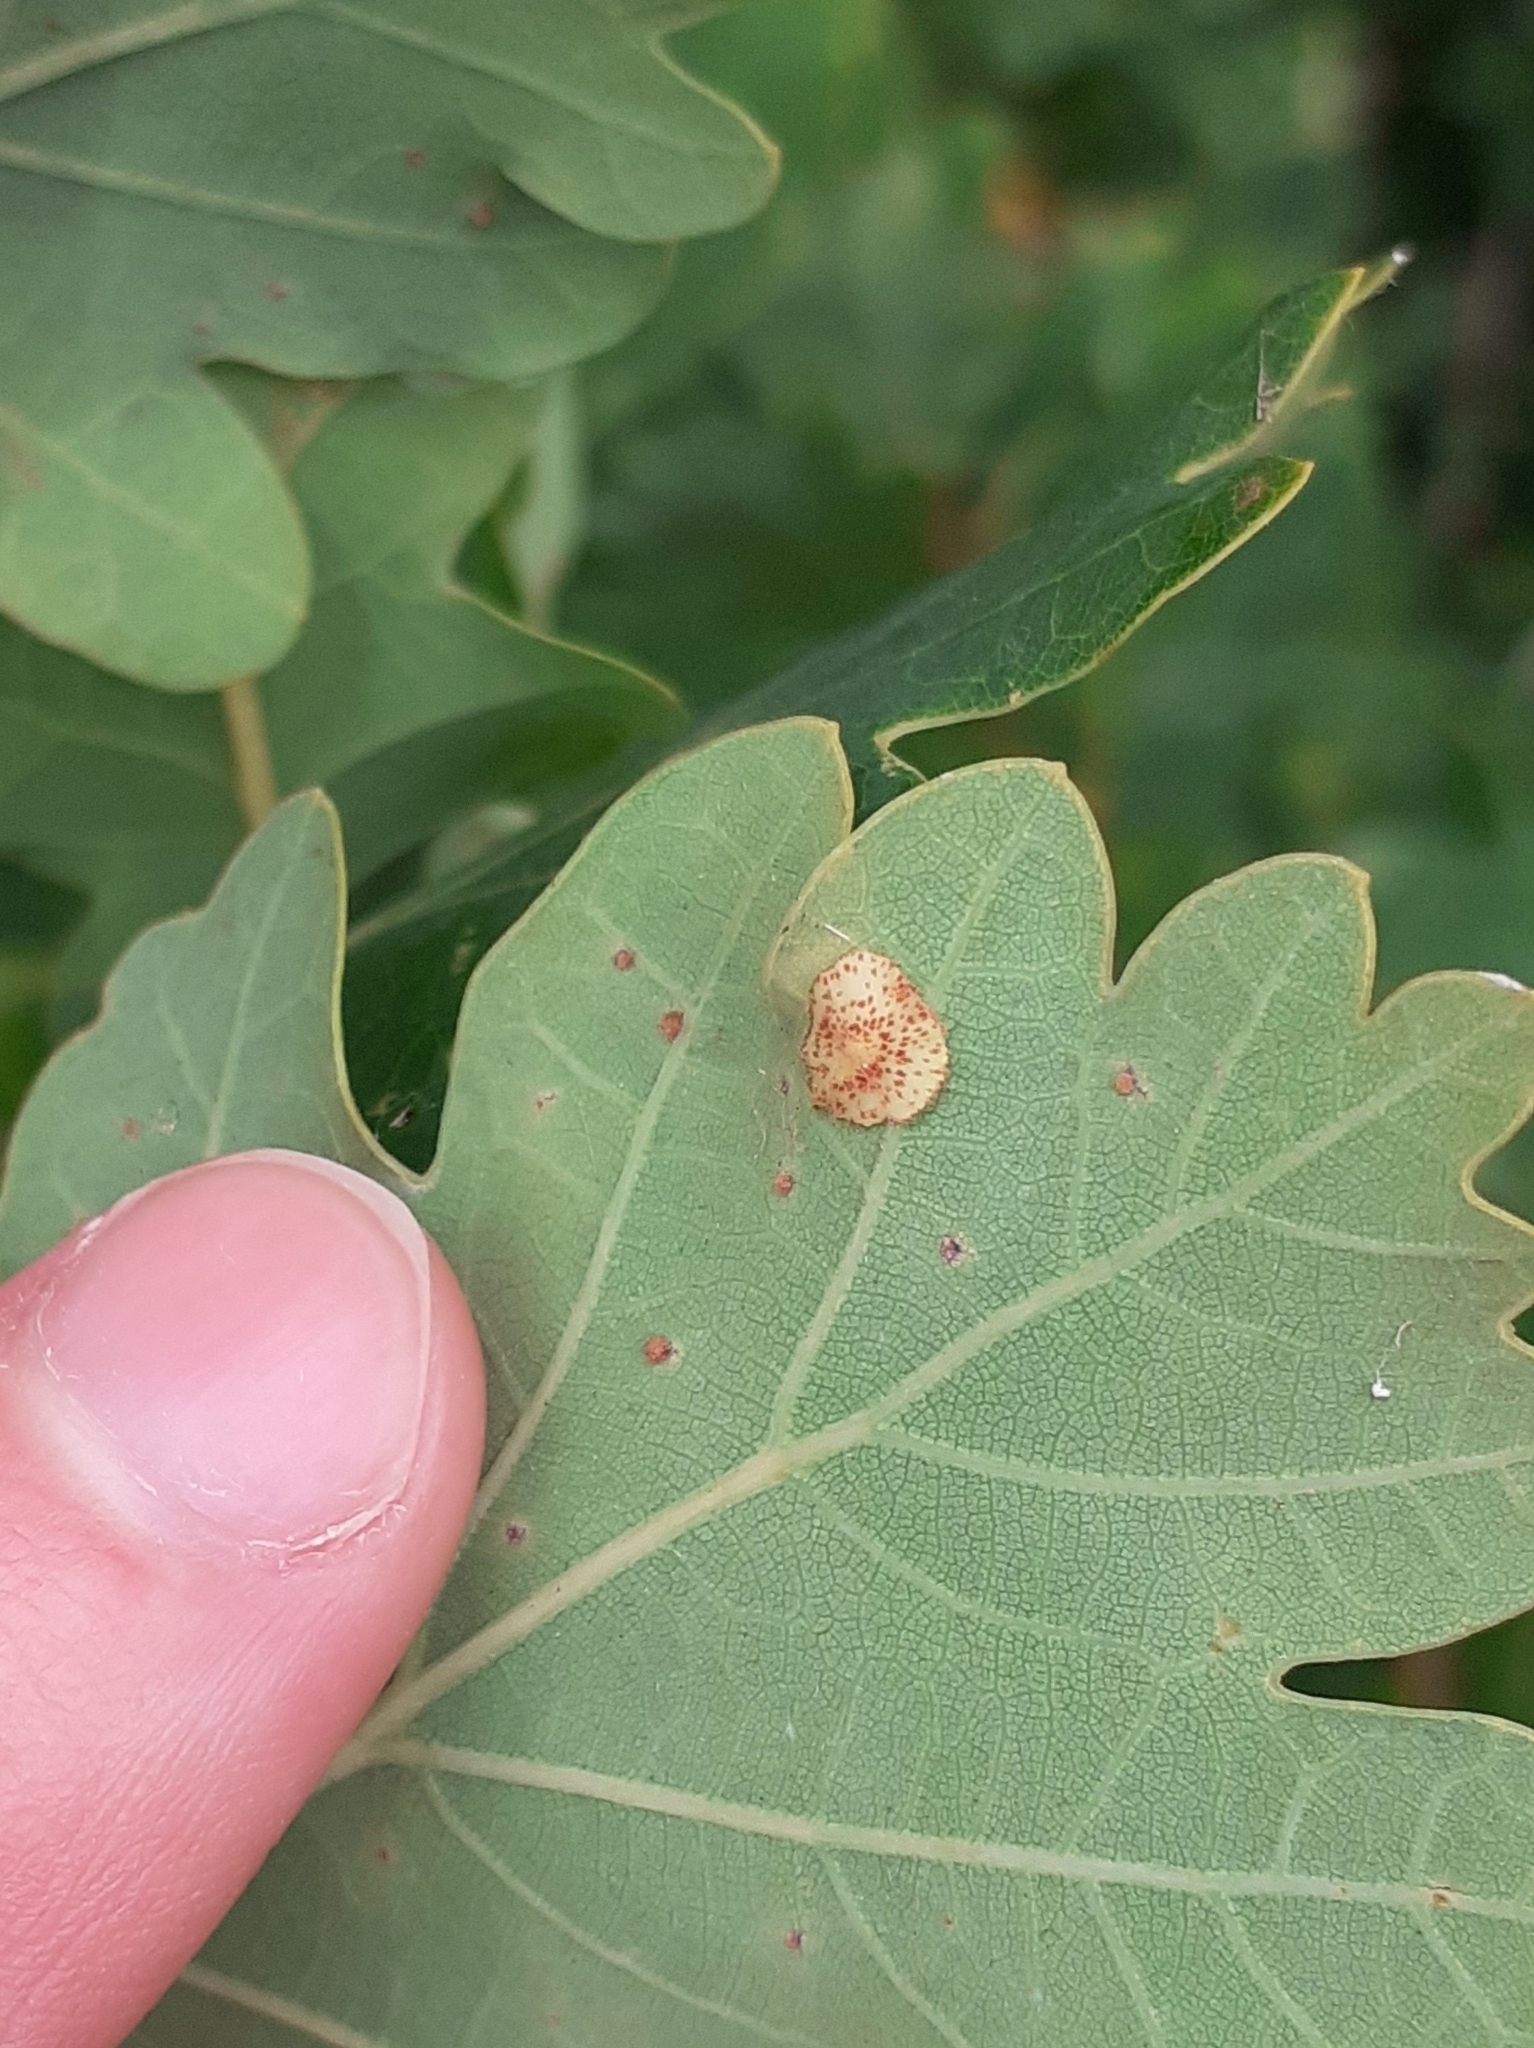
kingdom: Animalia
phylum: Arthropoda
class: Insecta
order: Hymenoptera
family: Cynipidae
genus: Neuroterus
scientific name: Neuroterus quercusbaccarum
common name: Common spangle gall
